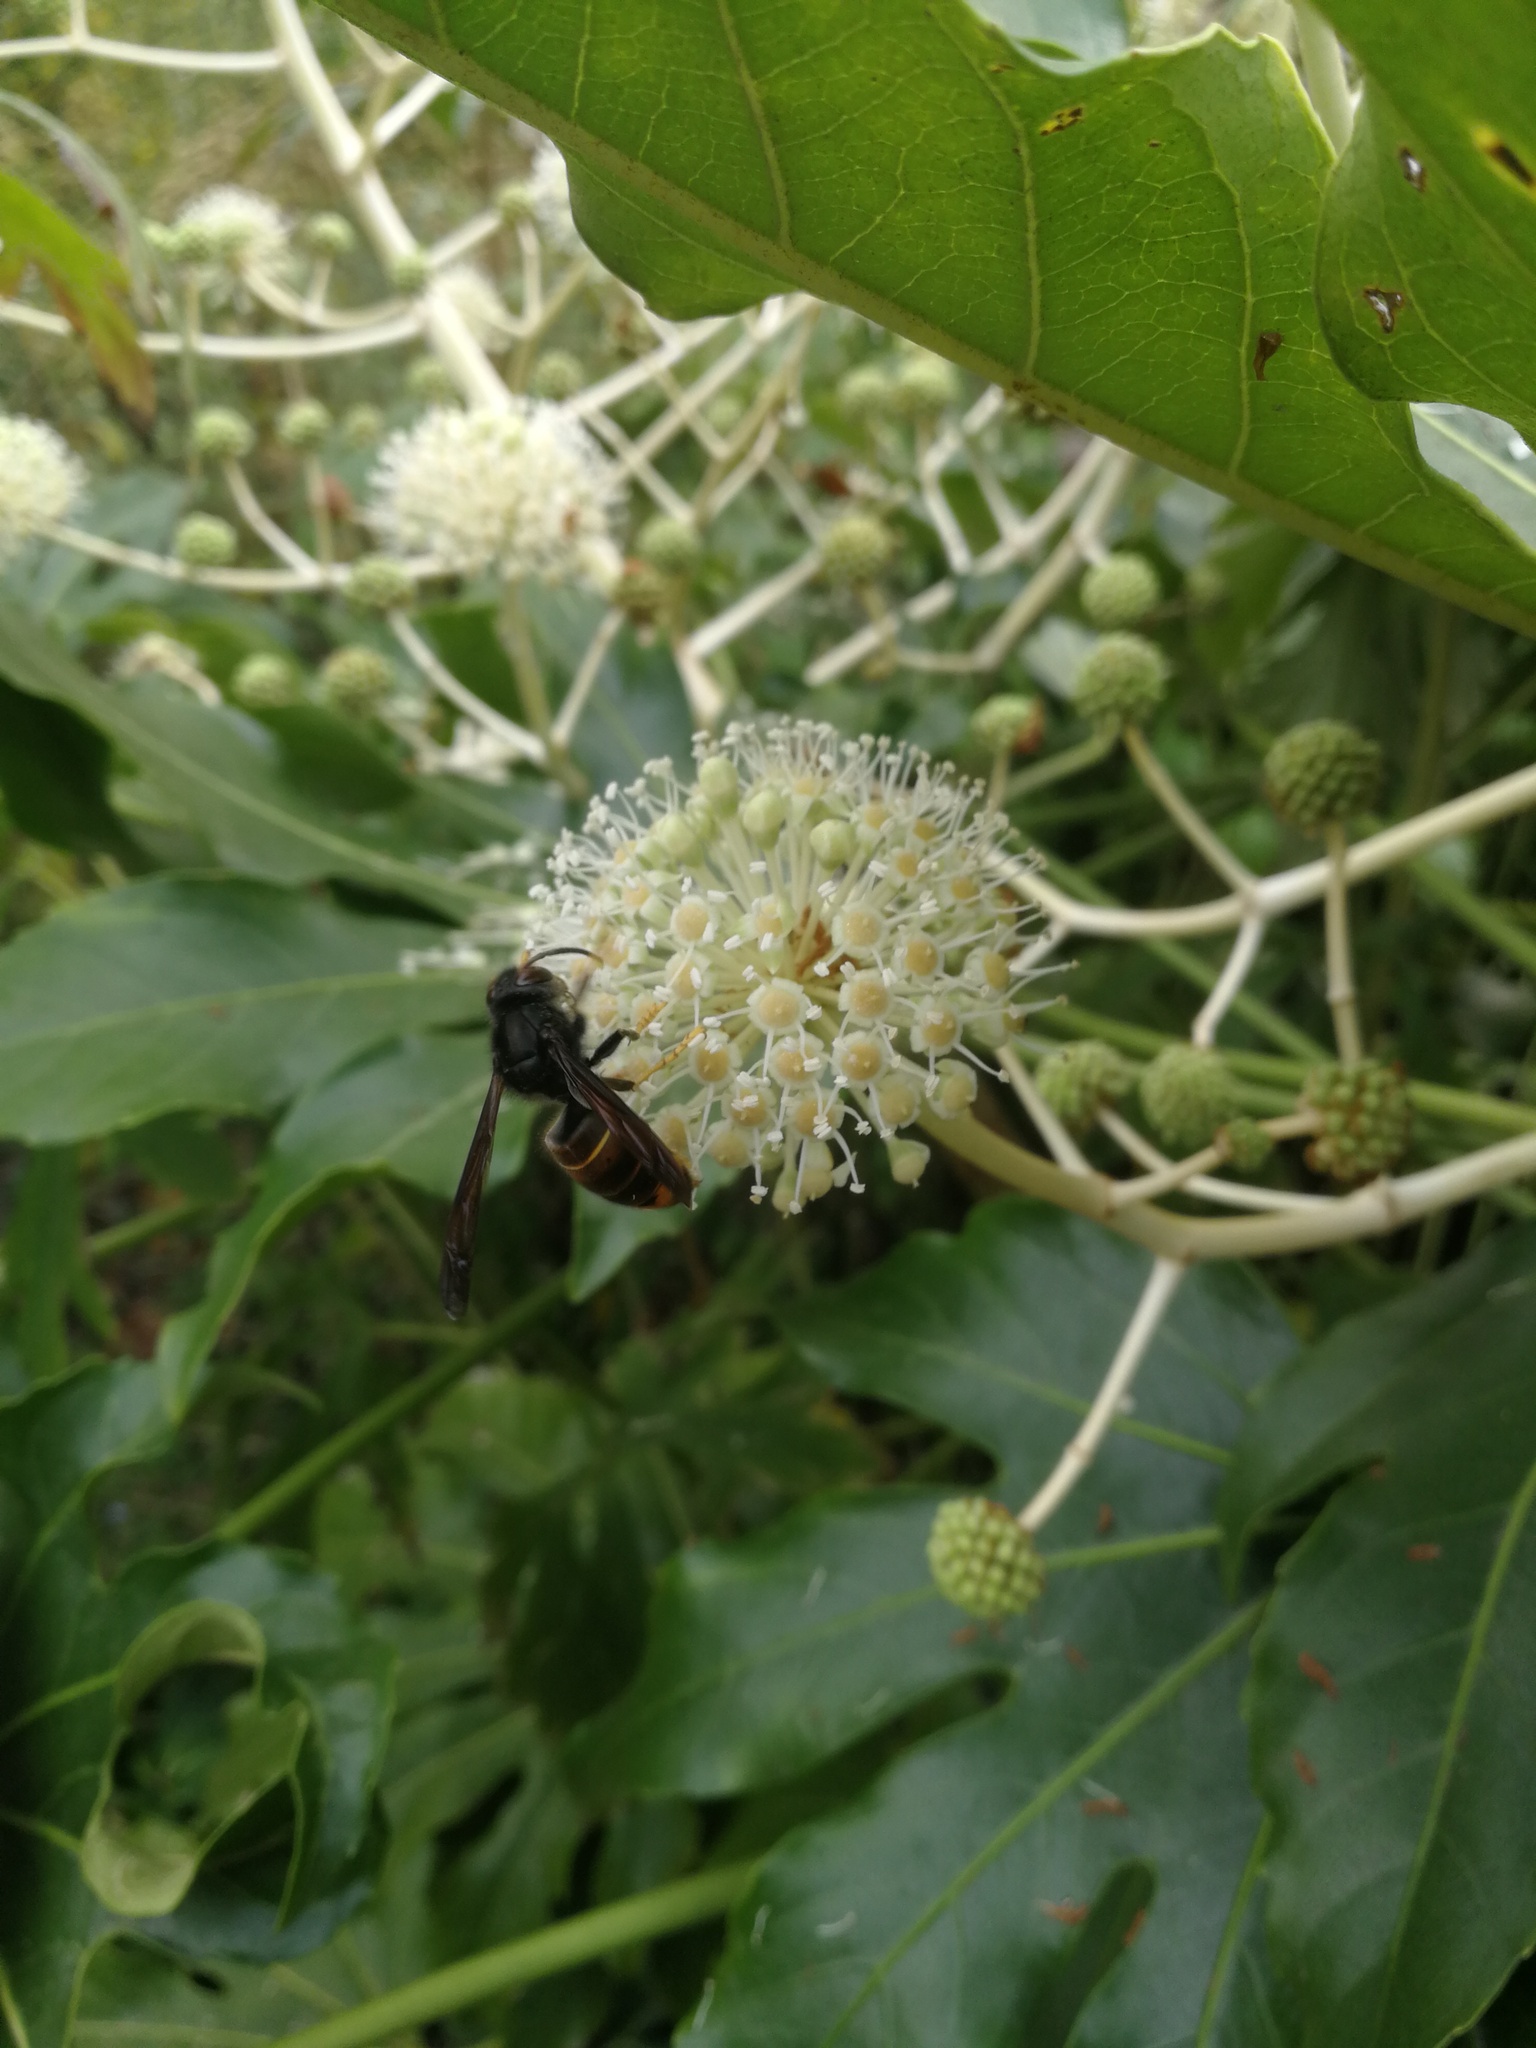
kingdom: Animalia
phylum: Arthropoda
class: Insecta
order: Hymenoptera
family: Vespidae
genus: Vespa
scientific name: Vespa velutina
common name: Asian hornet
